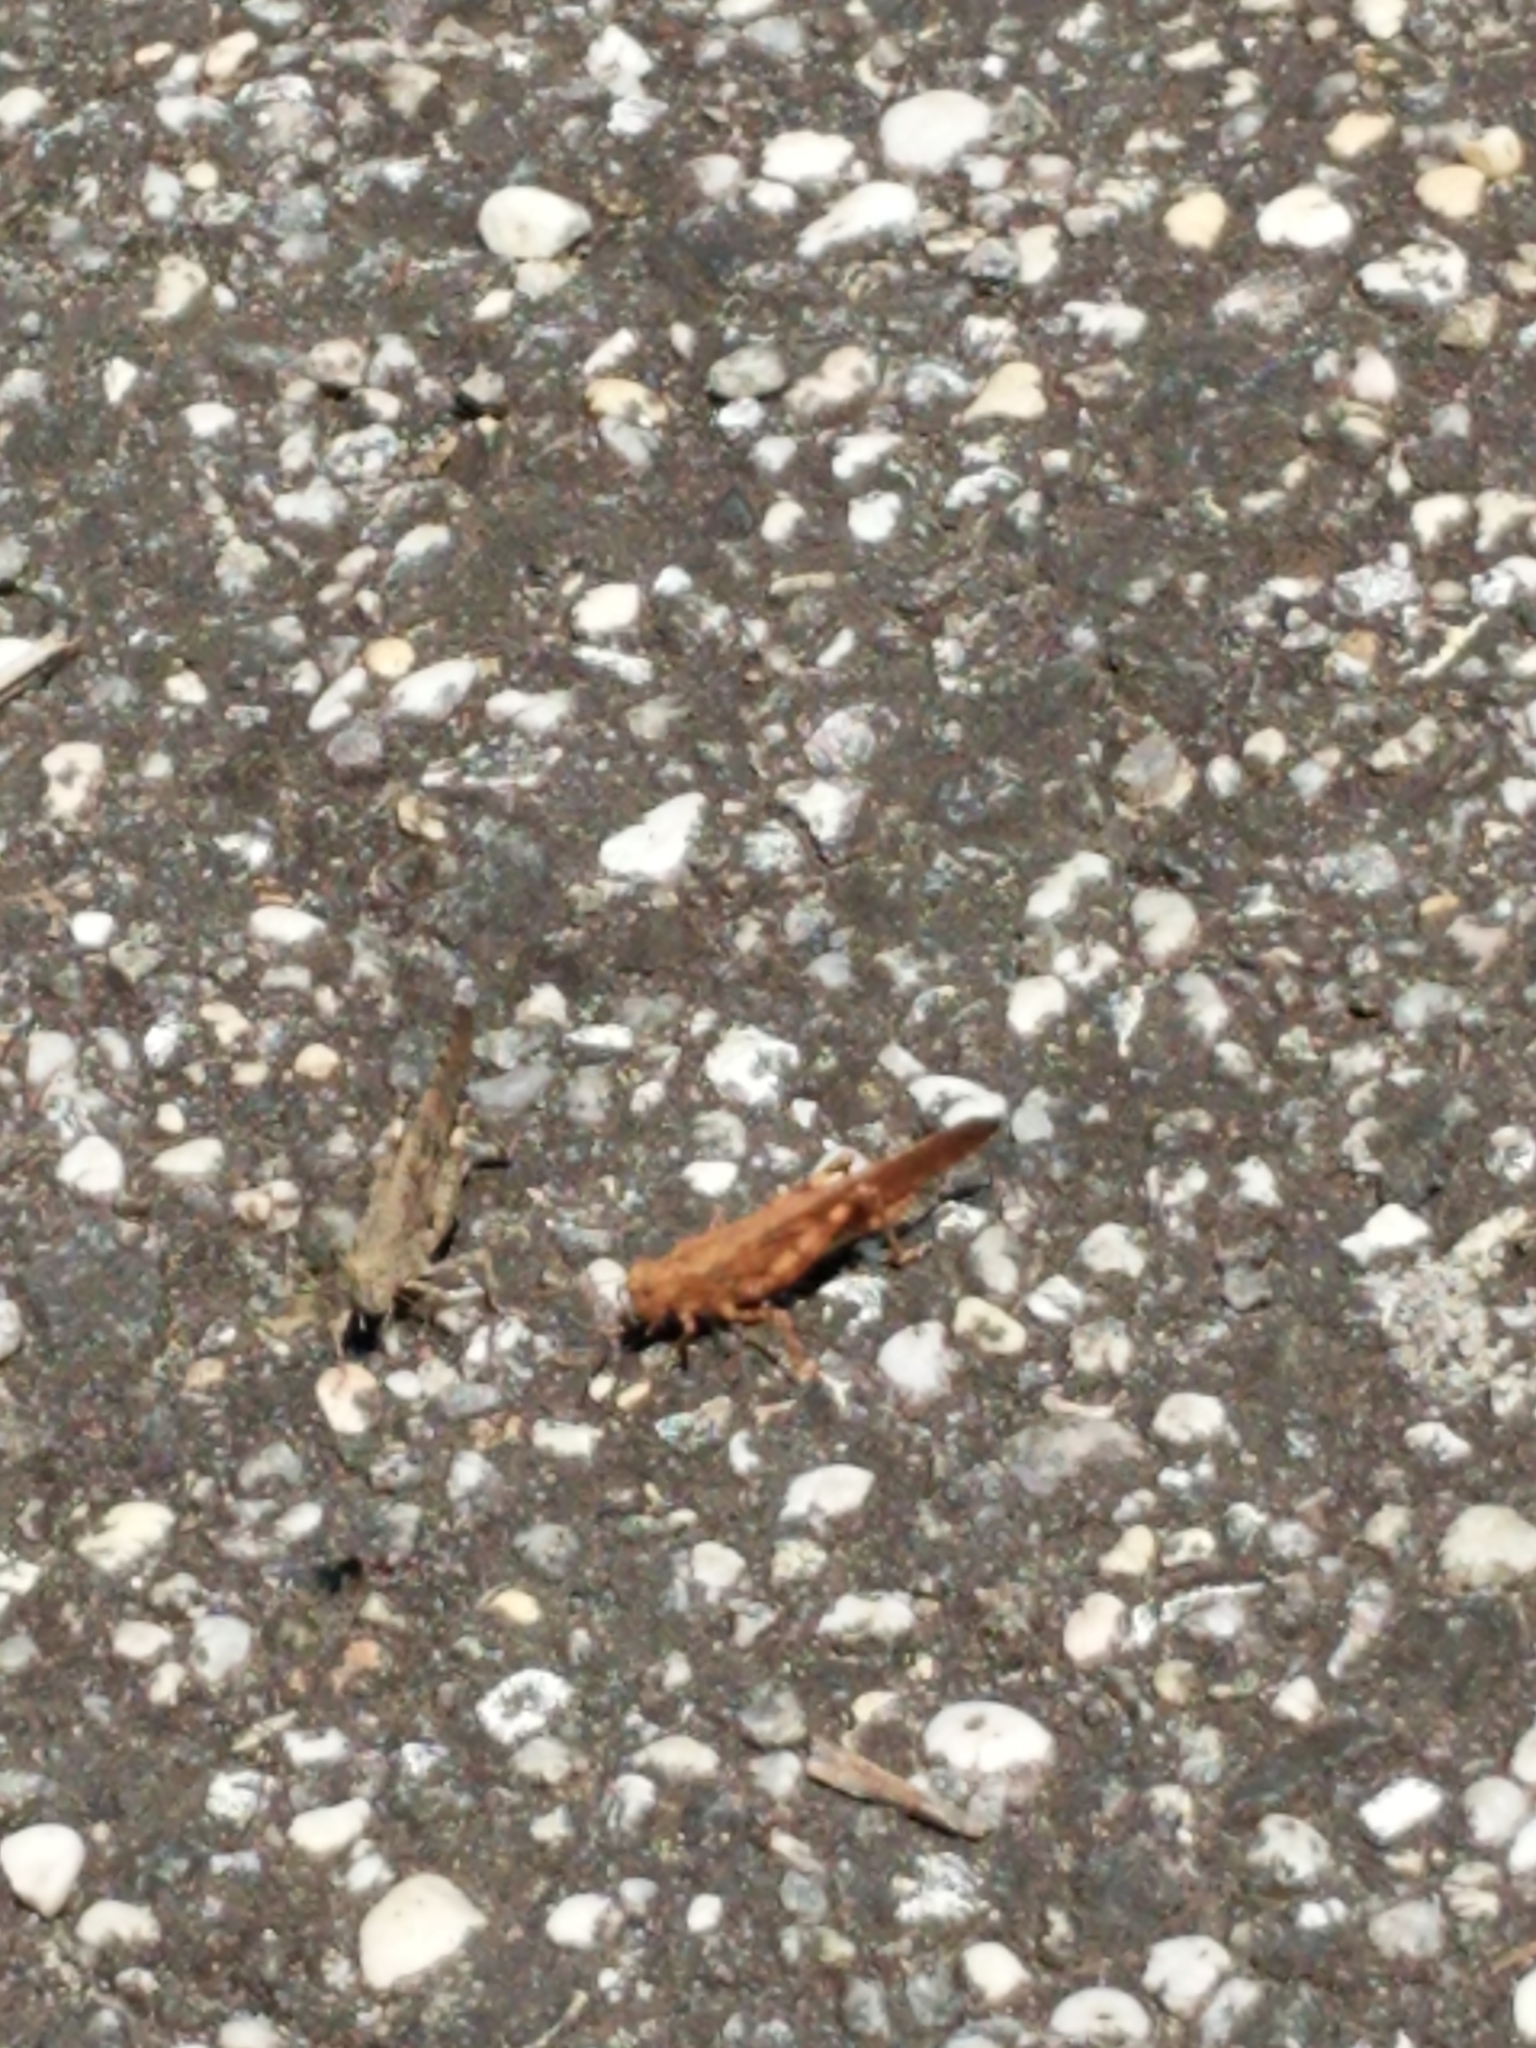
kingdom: Animalia
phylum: Arthropoda
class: Insecta
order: Orthoptera
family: Acrididae
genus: Dissosteira
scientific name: Dissosteira carolina
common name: Carolina grasshopper
